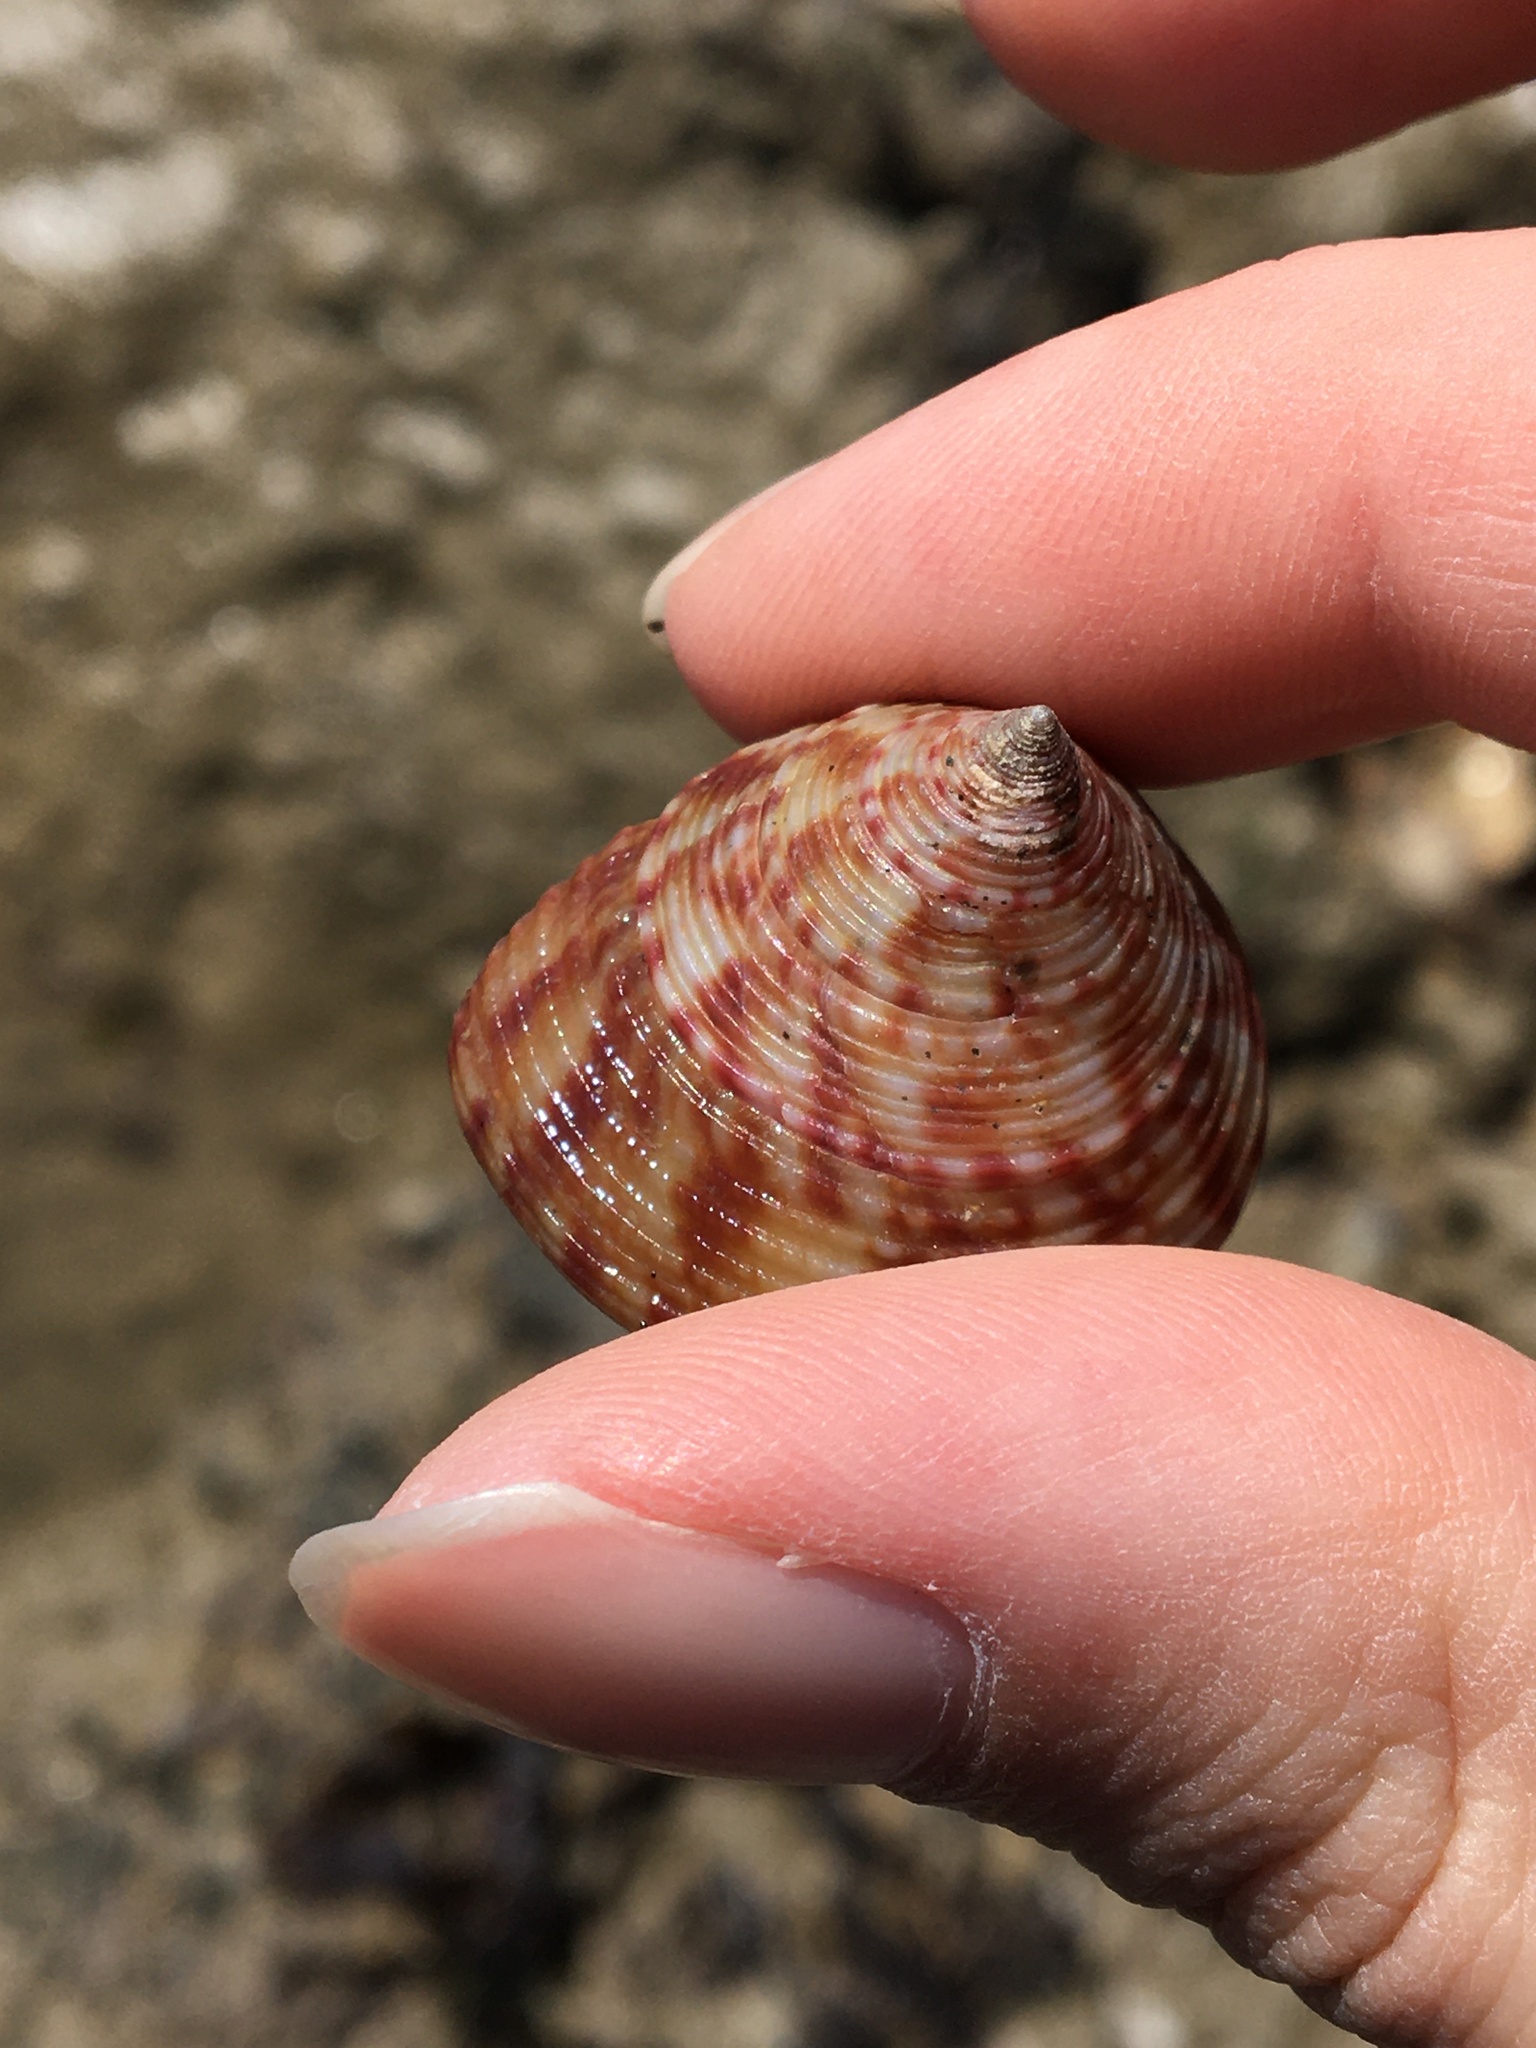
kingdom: Animalia
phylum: Mollusca
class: Gastropoda
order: Trochida
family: Calliostomatidae
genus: Calliostoma
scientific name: Calliostoma zizyphinum
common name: Painted top shell
